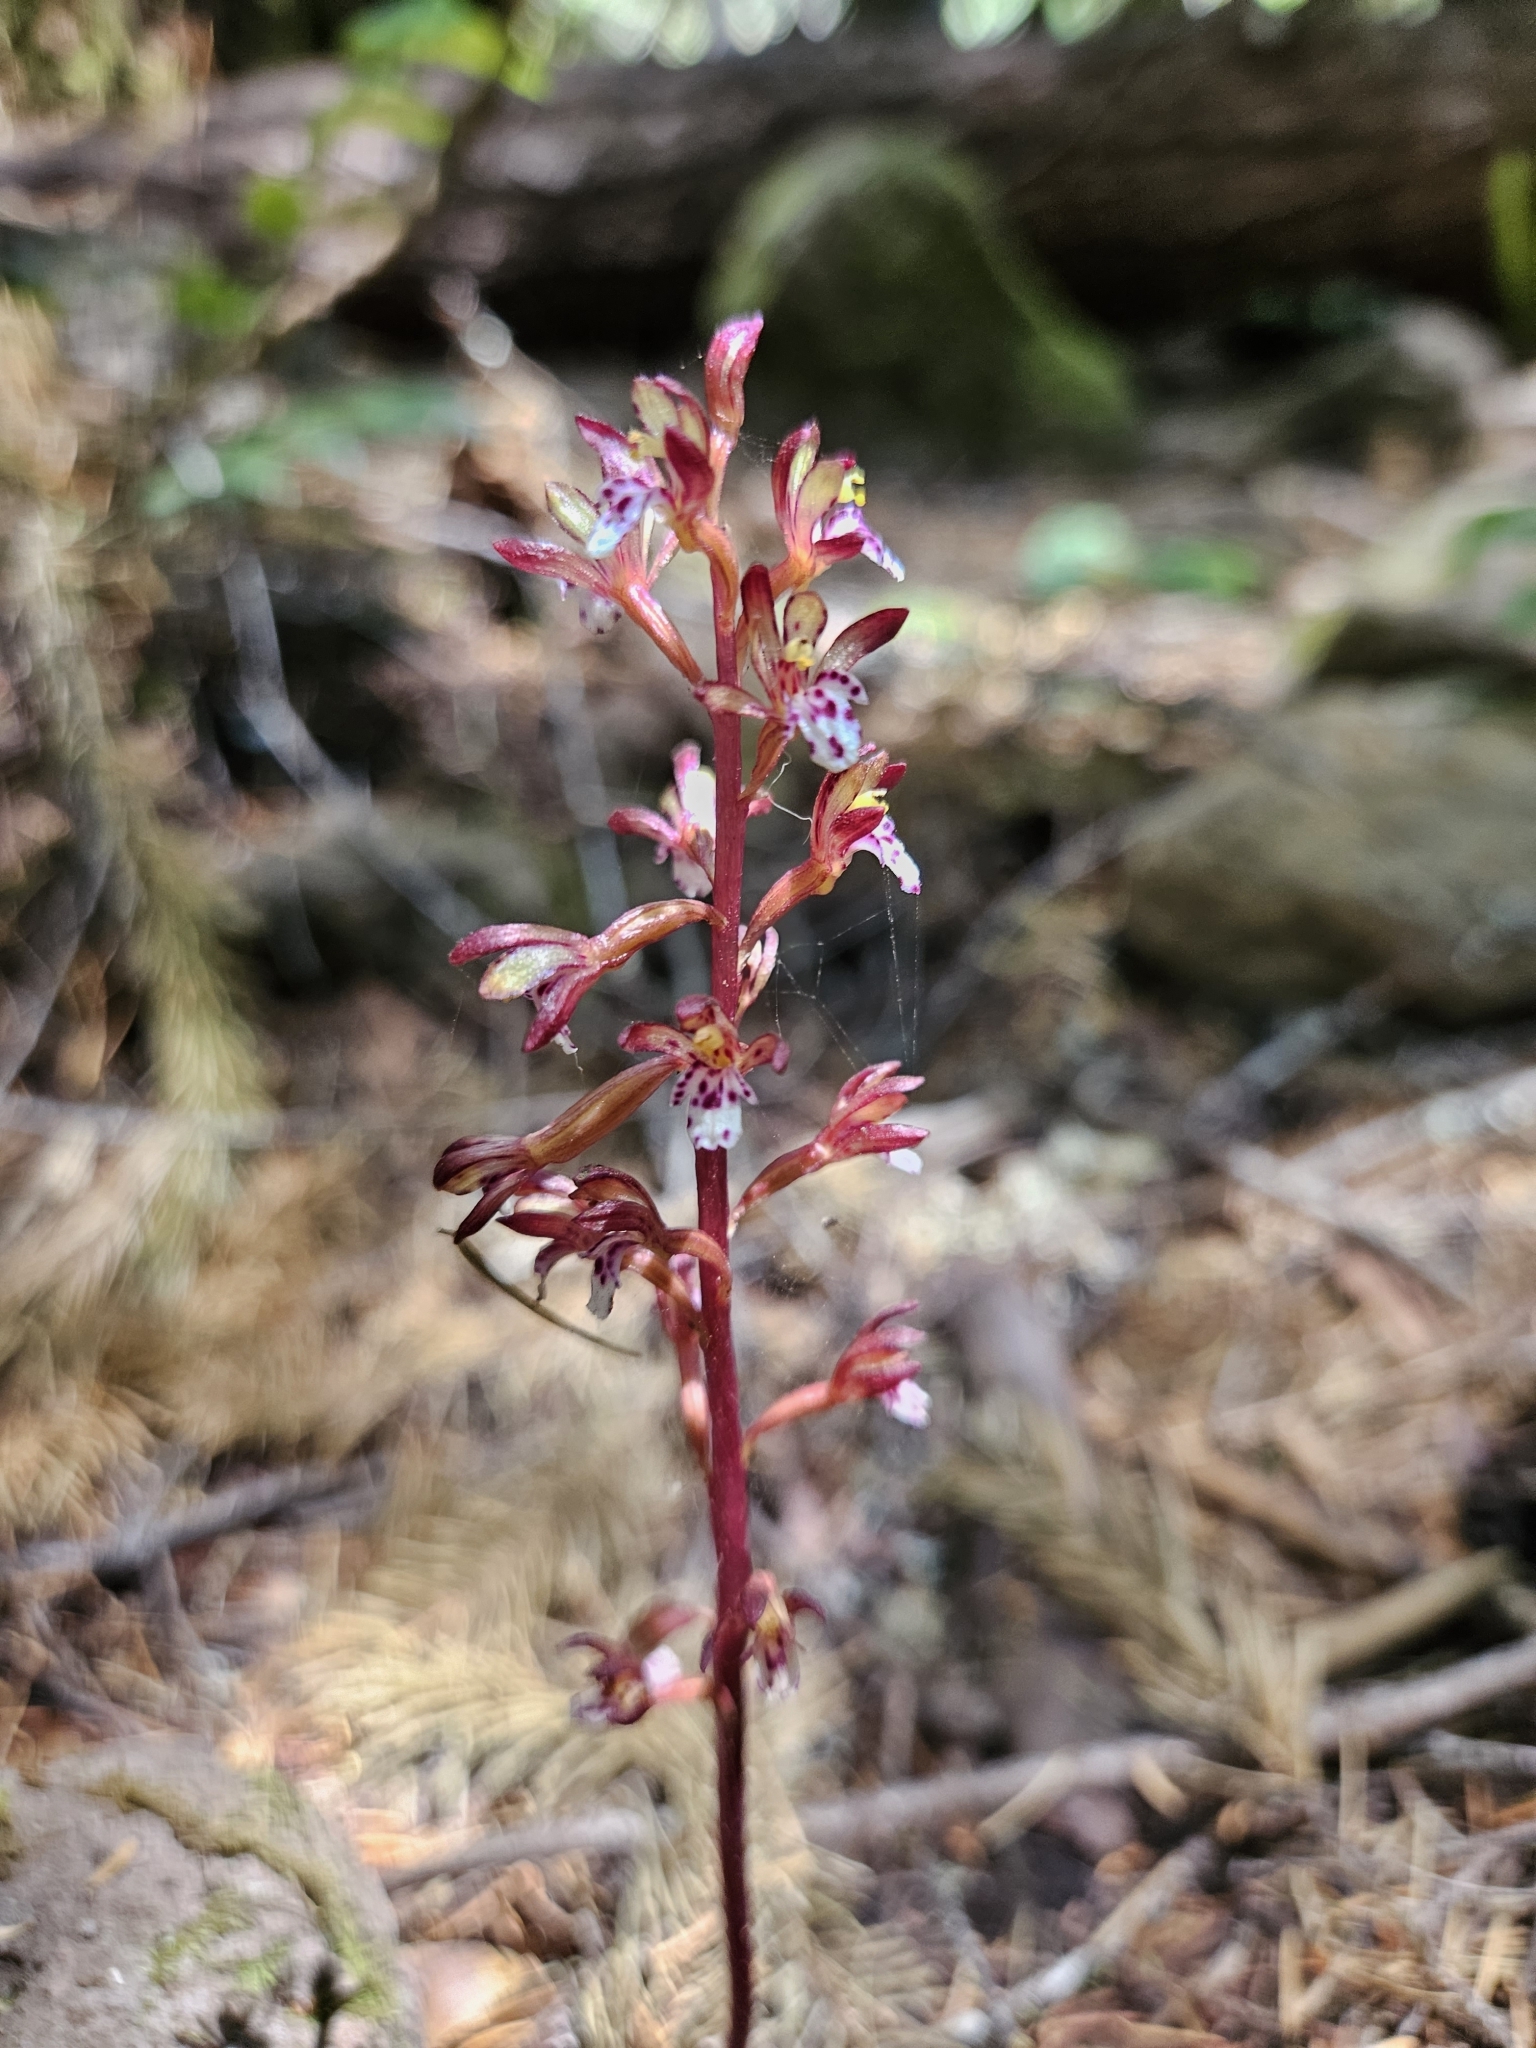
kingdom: Plantae
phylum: Tracheophyta
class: Liliopsida
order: Asparagales
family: Orchidaceae
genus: Corallorhiza
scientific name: Corallorhiza maculata
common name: Spotted coralroot
